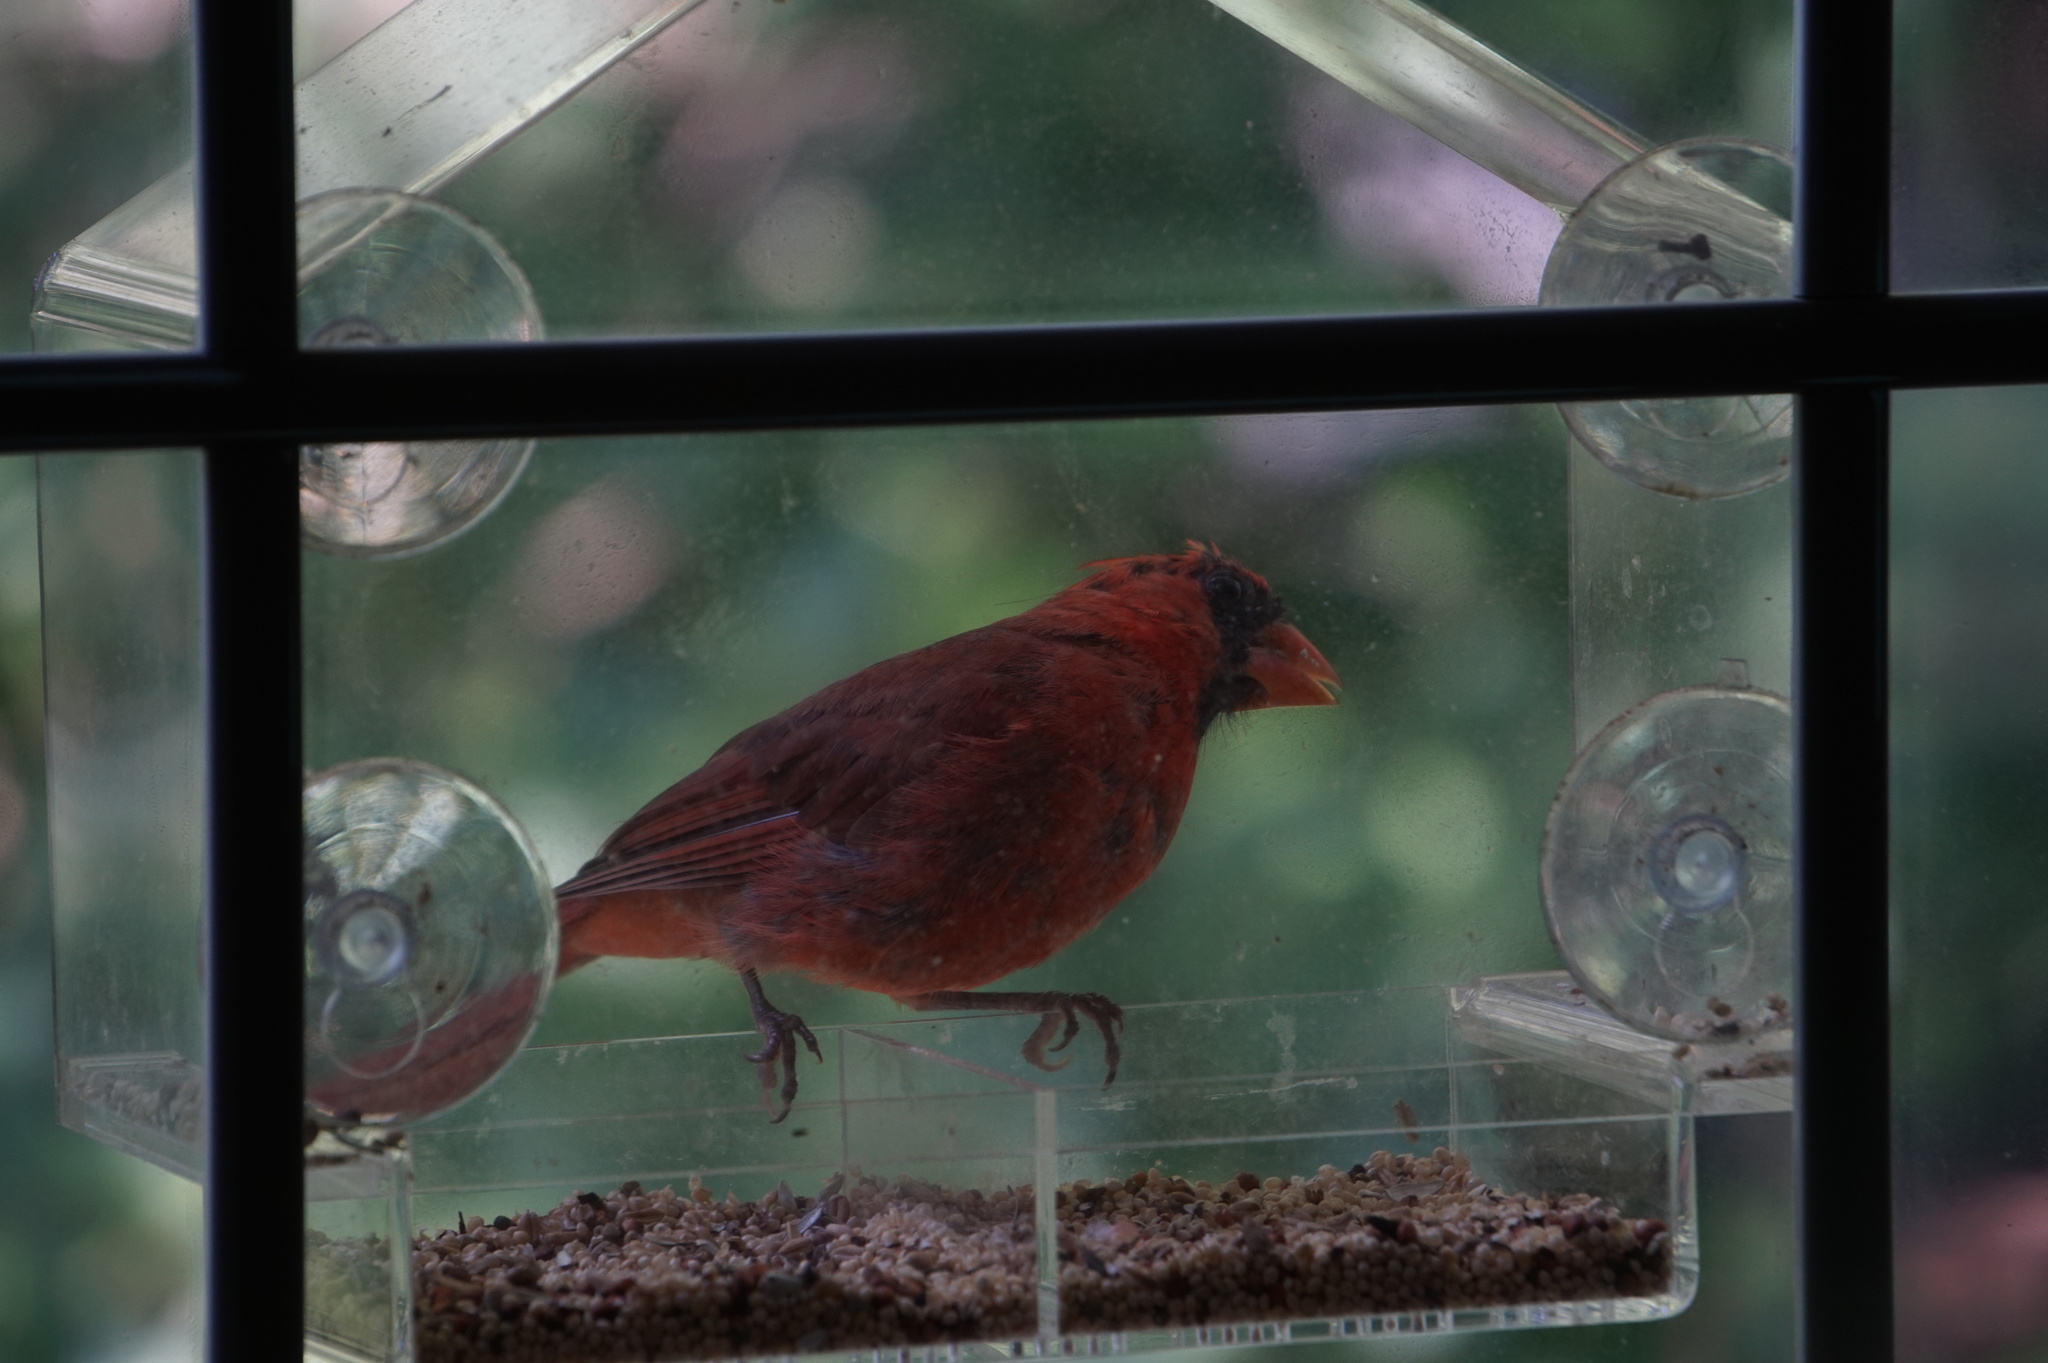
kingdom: Animalia
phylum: Chordata
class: Aves
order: Passeriformes
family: Cardinalidae
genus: Cardinalis
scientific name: Cardinalis cardinalis
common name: Northern cardinal
